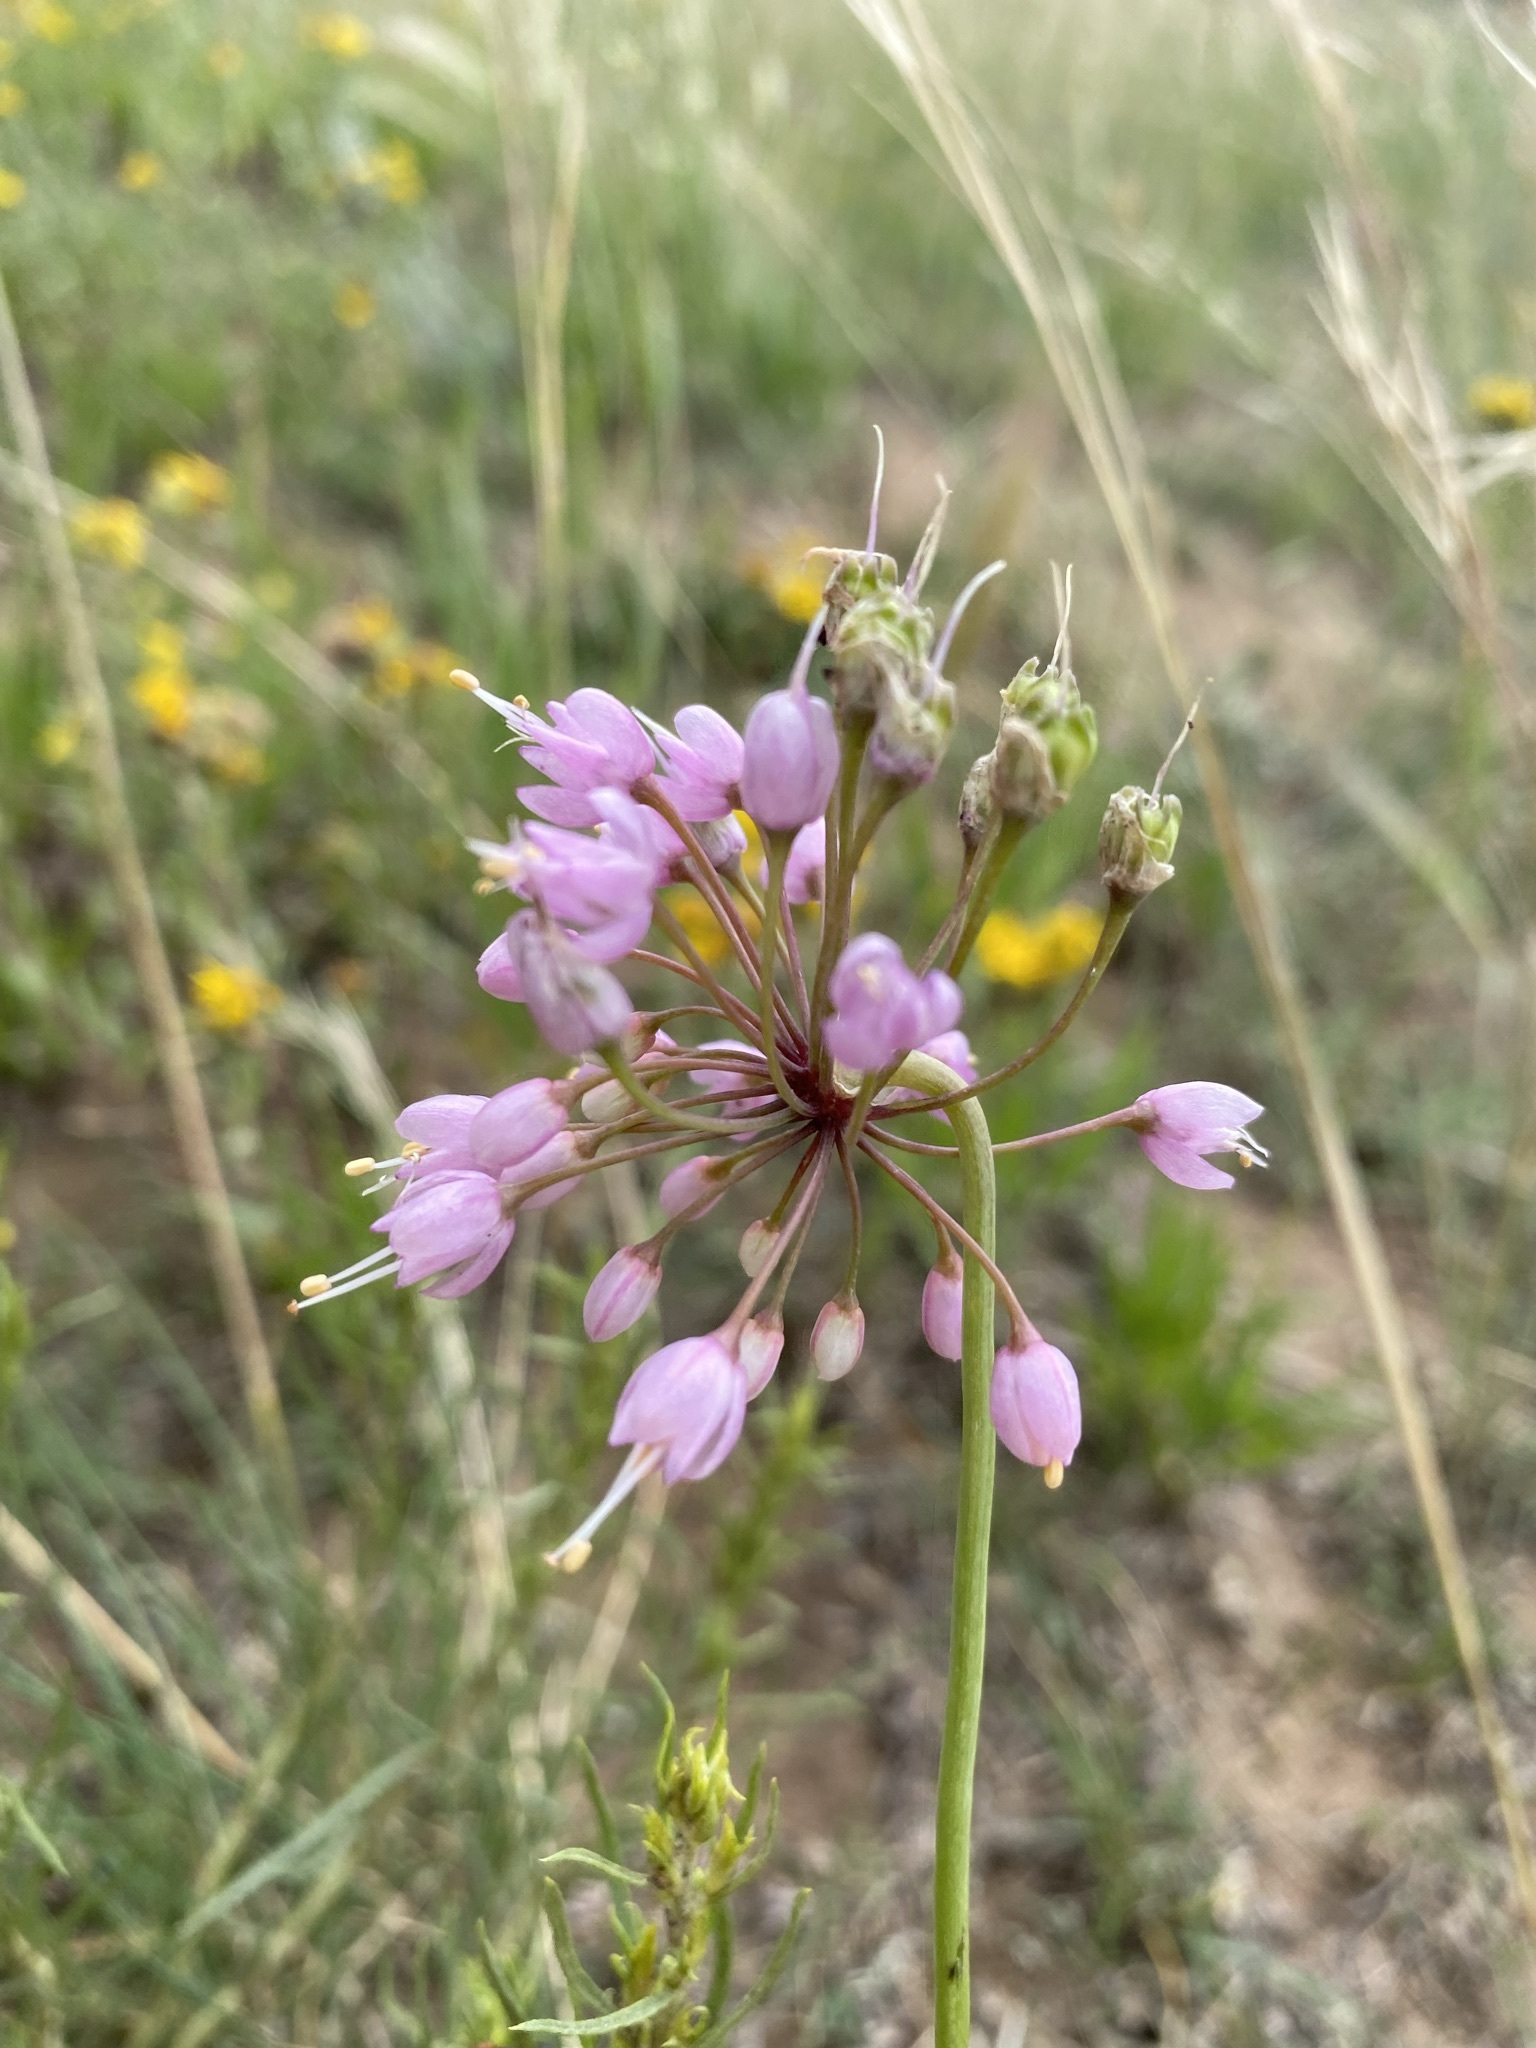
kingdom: Plantae
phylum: Tracheophyta
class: Liliopsida
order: Asparagales
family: Amaryllidaceae
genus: Allium
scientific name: Allium cernuum
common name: Nodding onion
